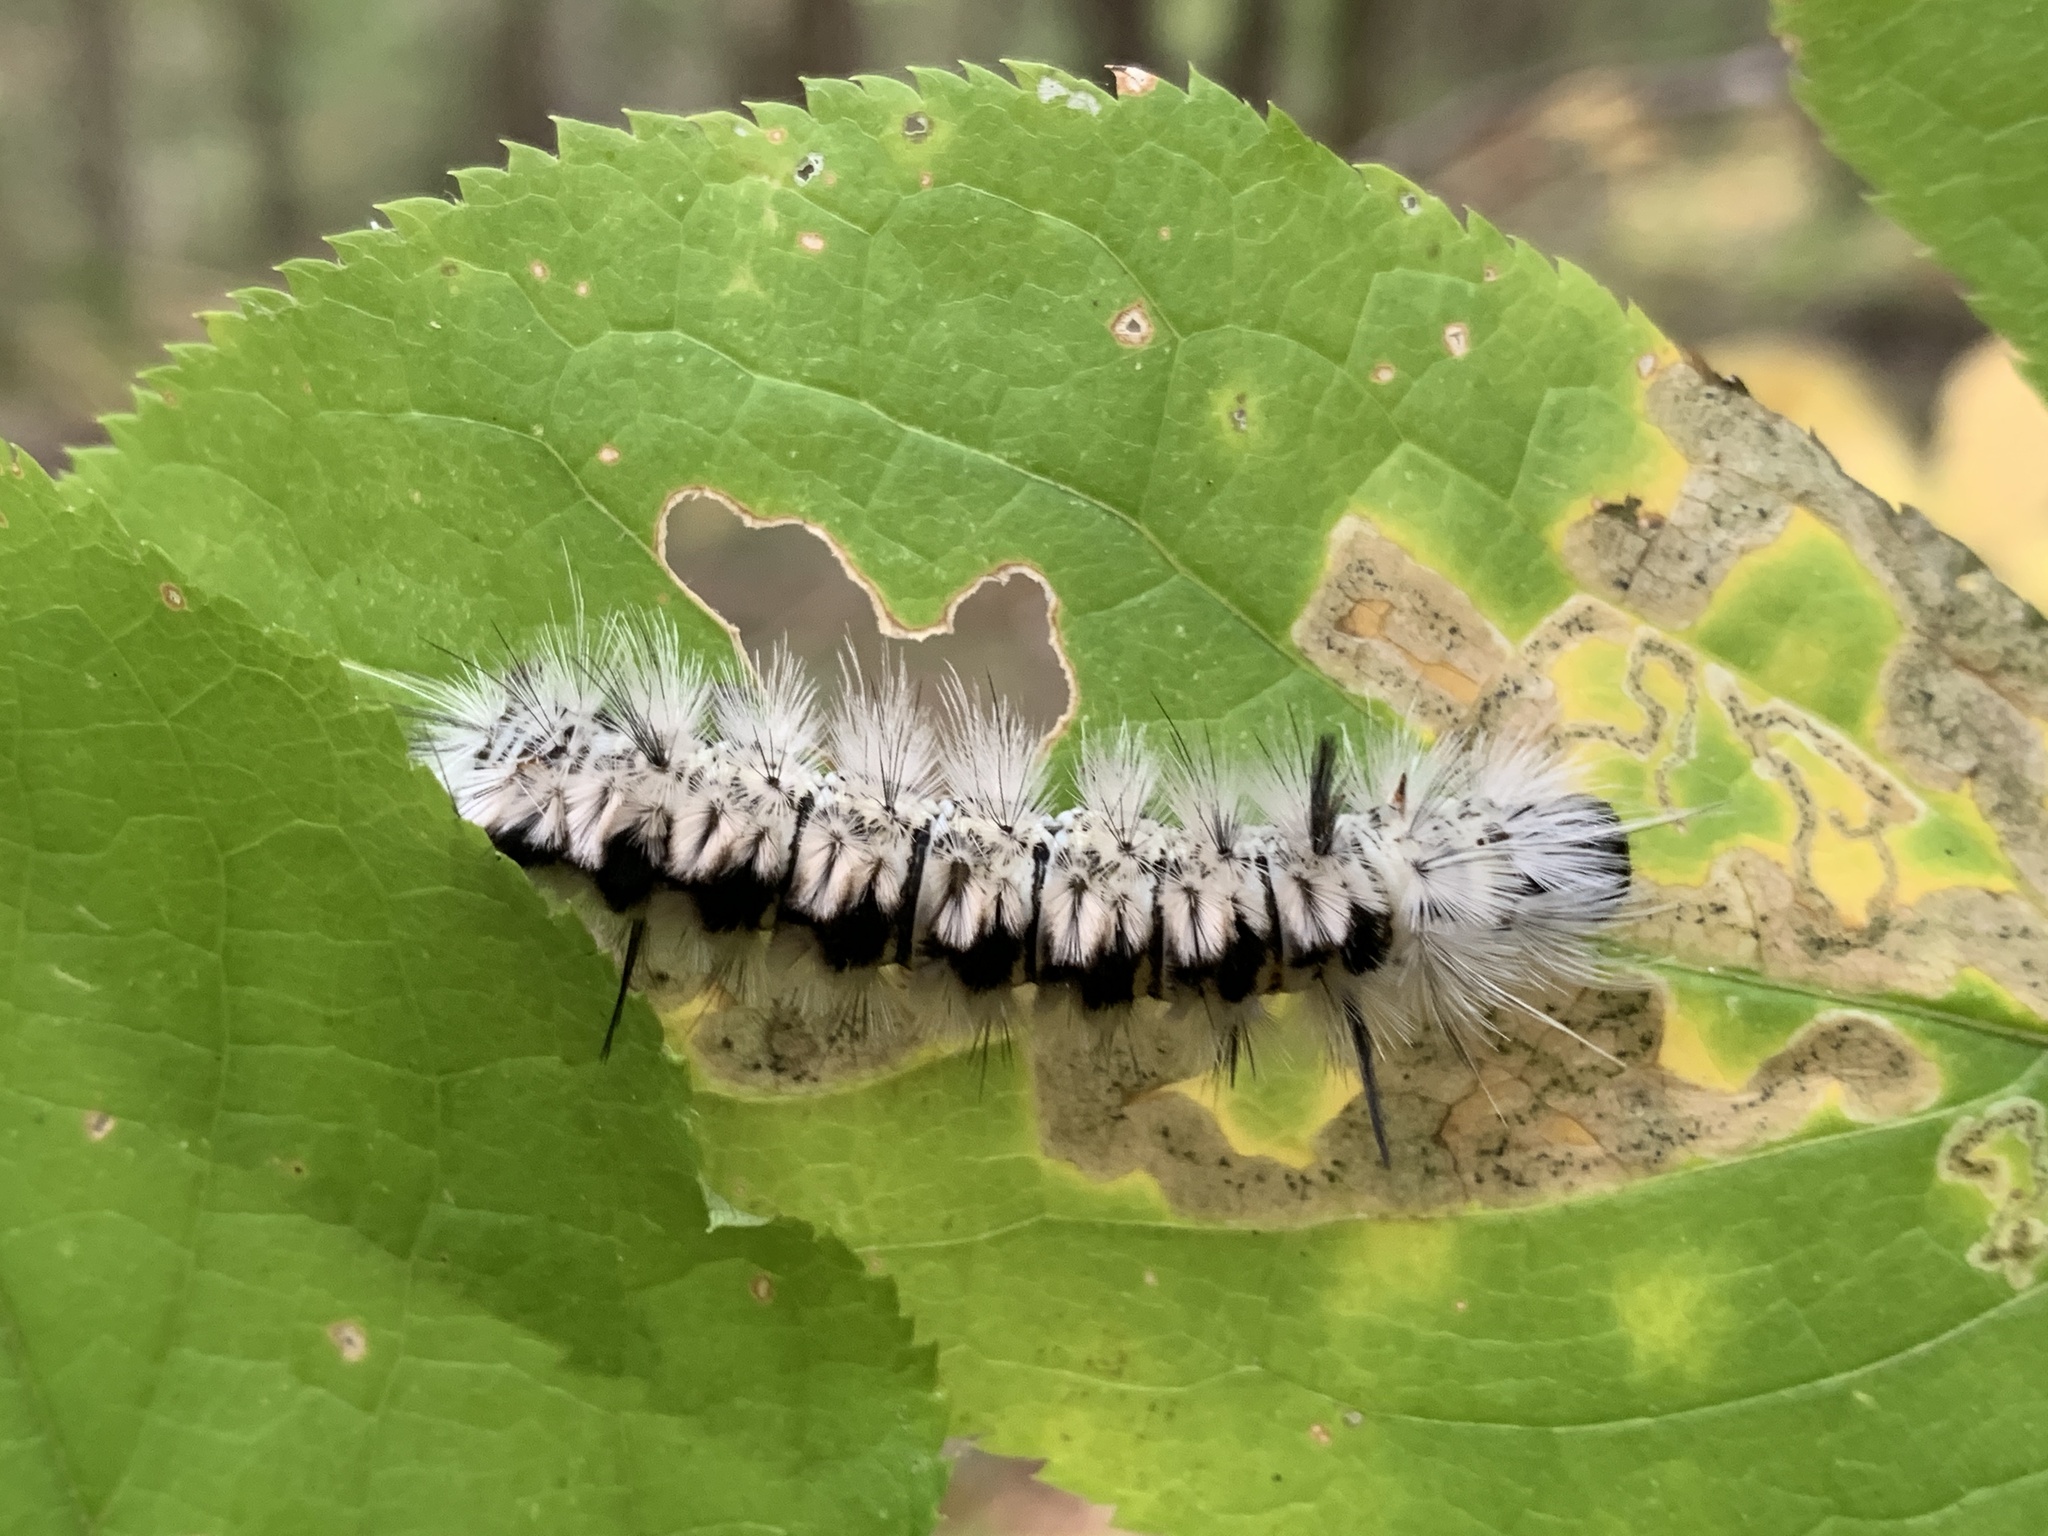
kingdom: Animalia
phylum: Arthropoda
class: Insecta
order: Lepidoptera
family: Erebidae
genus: Lophocampa
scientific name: Lophocampa caryae
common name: Hickory tussock moth
